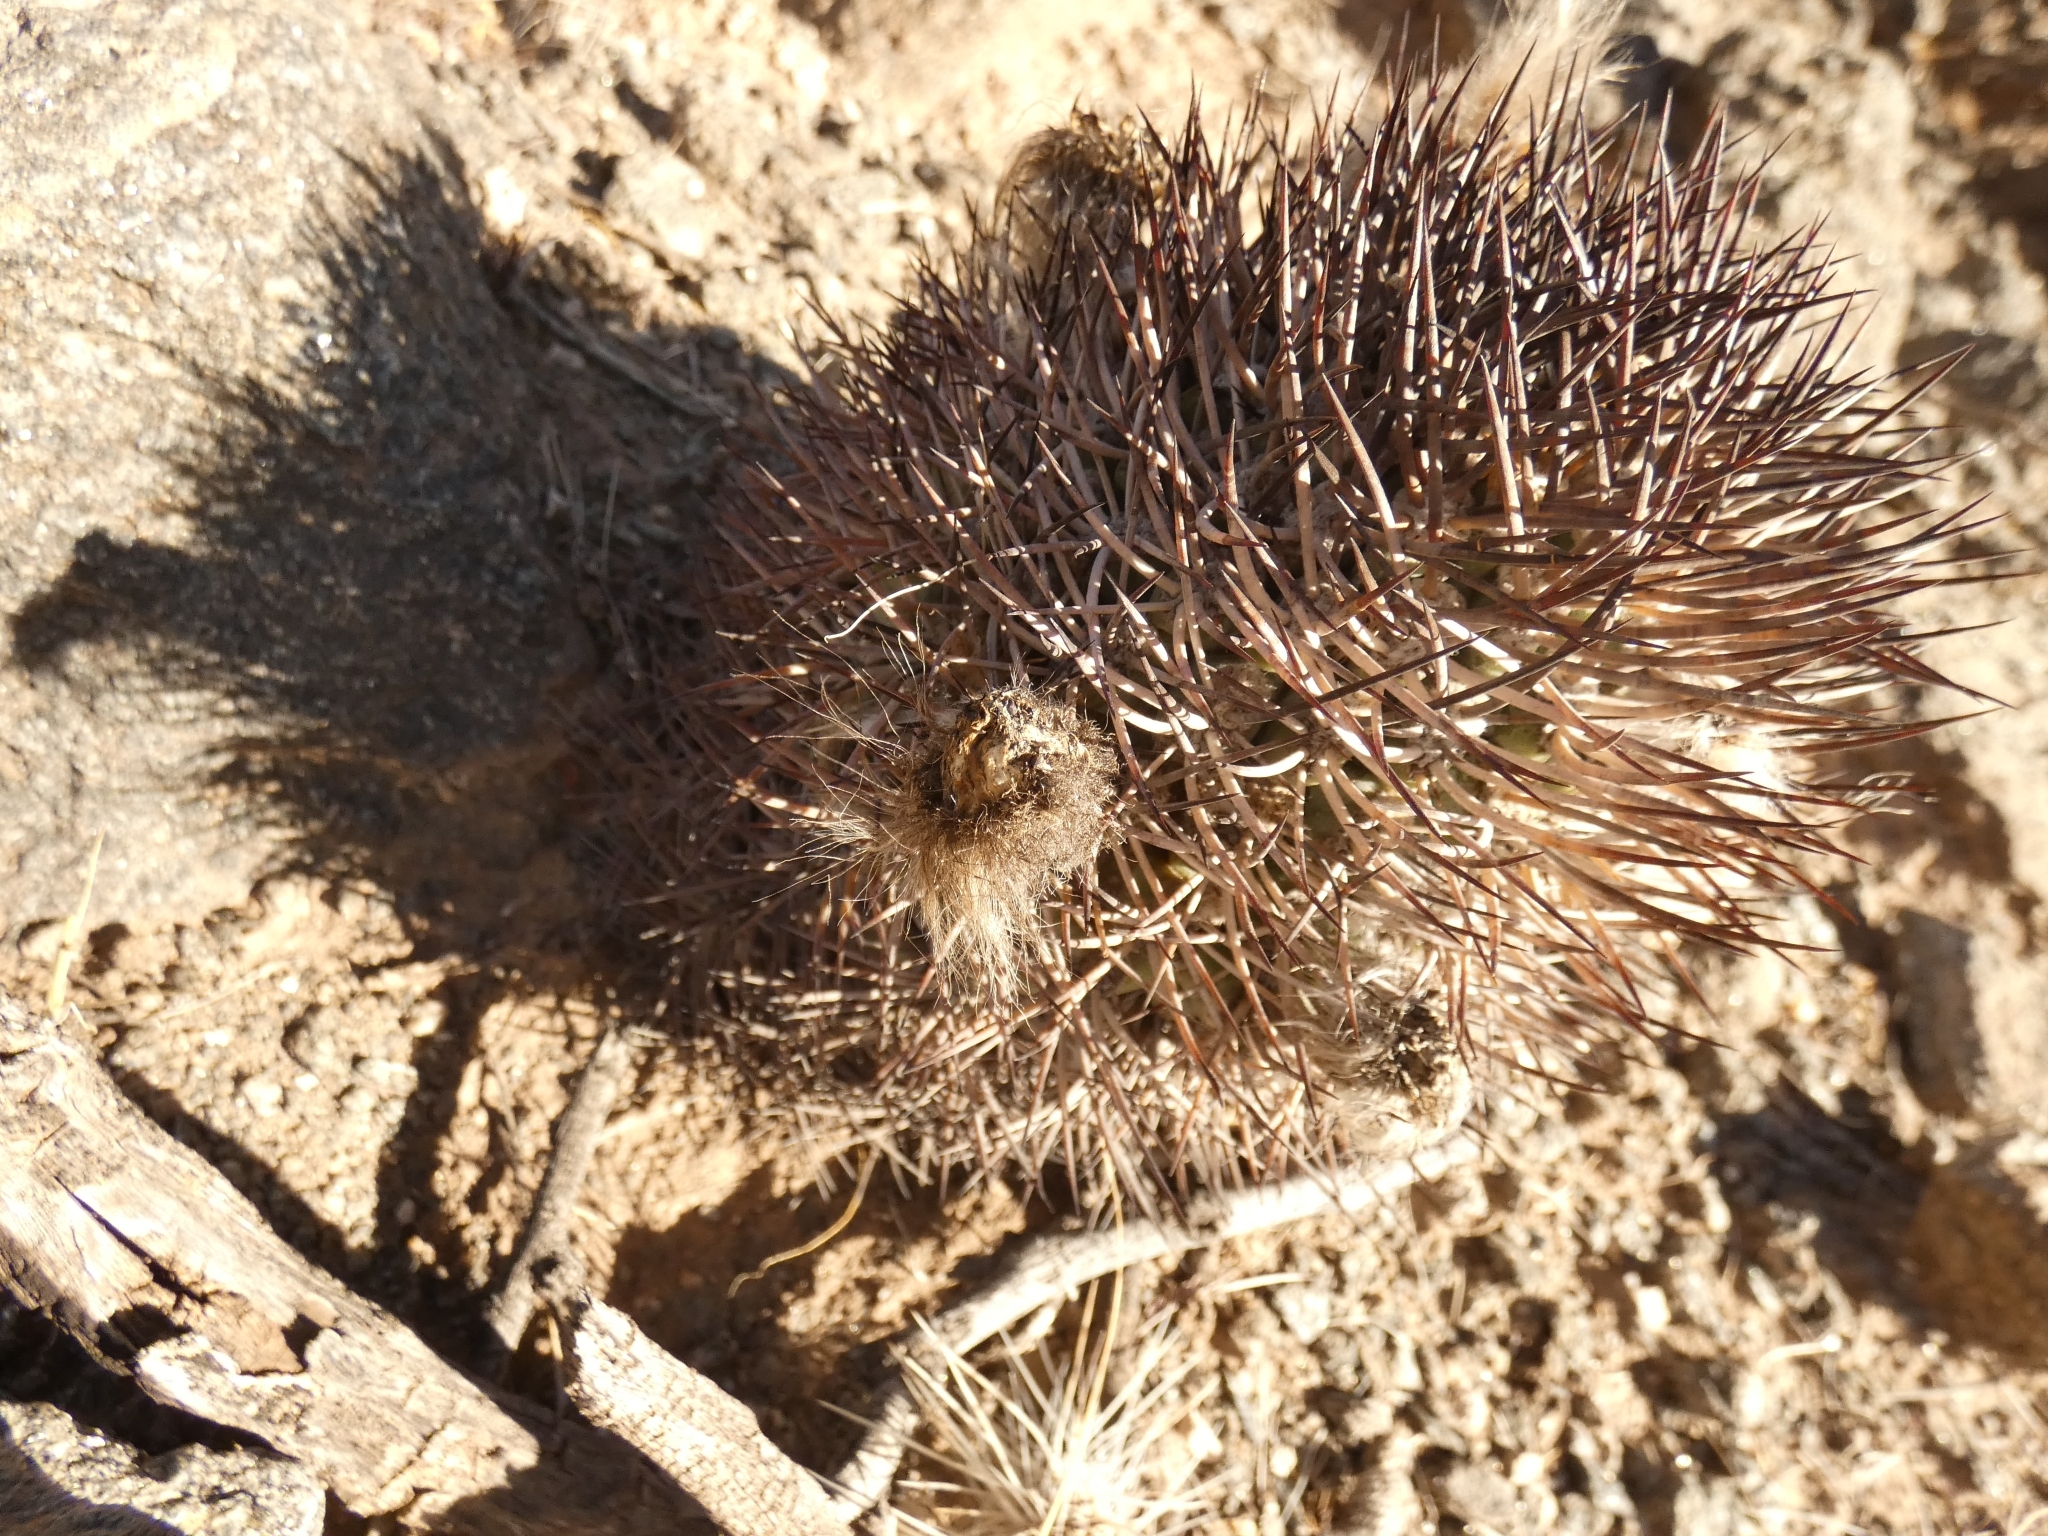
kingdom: Plantae
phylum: Tracheophyta
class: Magnoliopsida
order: Caryophyllales
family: Cactaceae
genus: Acanthocalycium
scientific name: Acanthocalycium thionanthum
